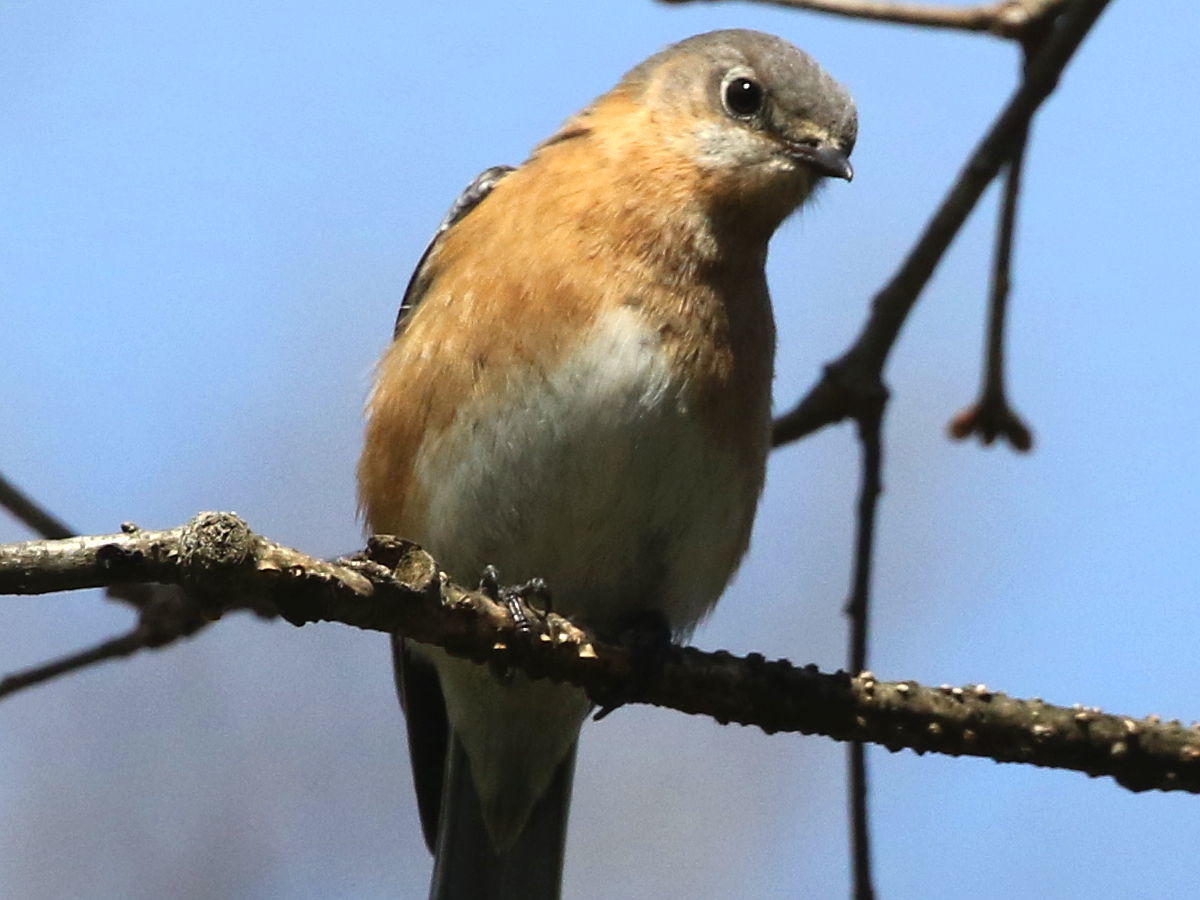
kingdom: Animalia
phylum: Chordata
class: Aves
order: Passeriformes
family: Turdidae
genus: Sialia
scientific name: Sialia sialis
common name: Eastern bluebird
